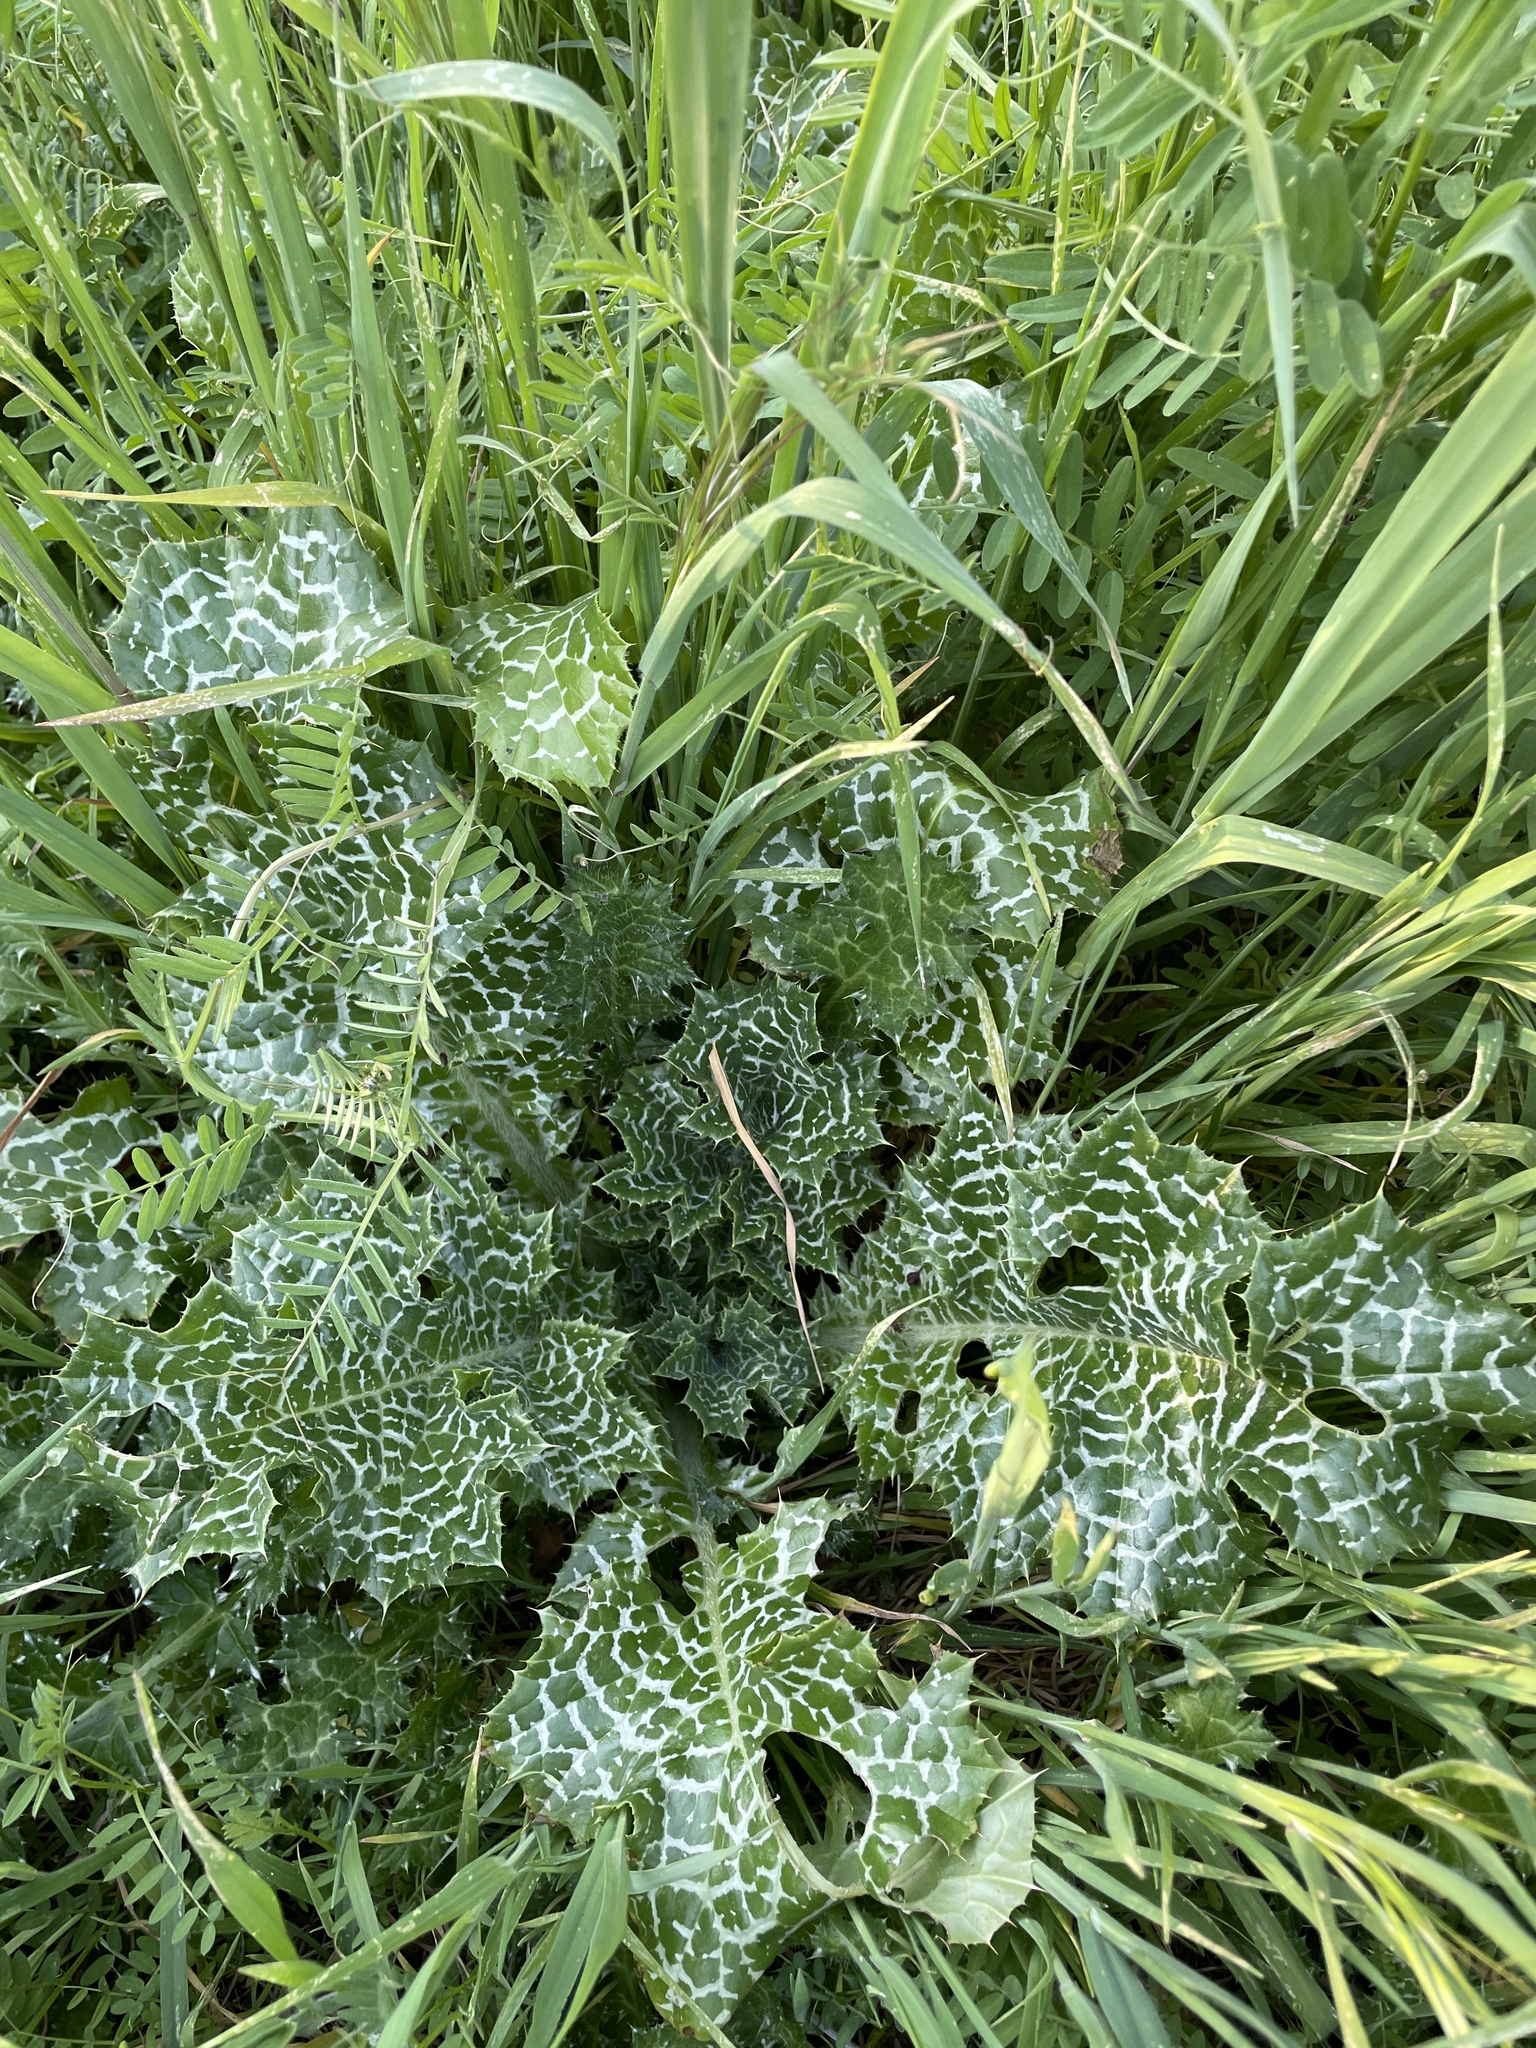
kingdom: Plantae
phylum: Tracheophyta
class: Magnoliopsida
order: Asterales
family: Asteraceae
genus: Silybum
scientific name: Silybum marianum
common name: Milk thistle
